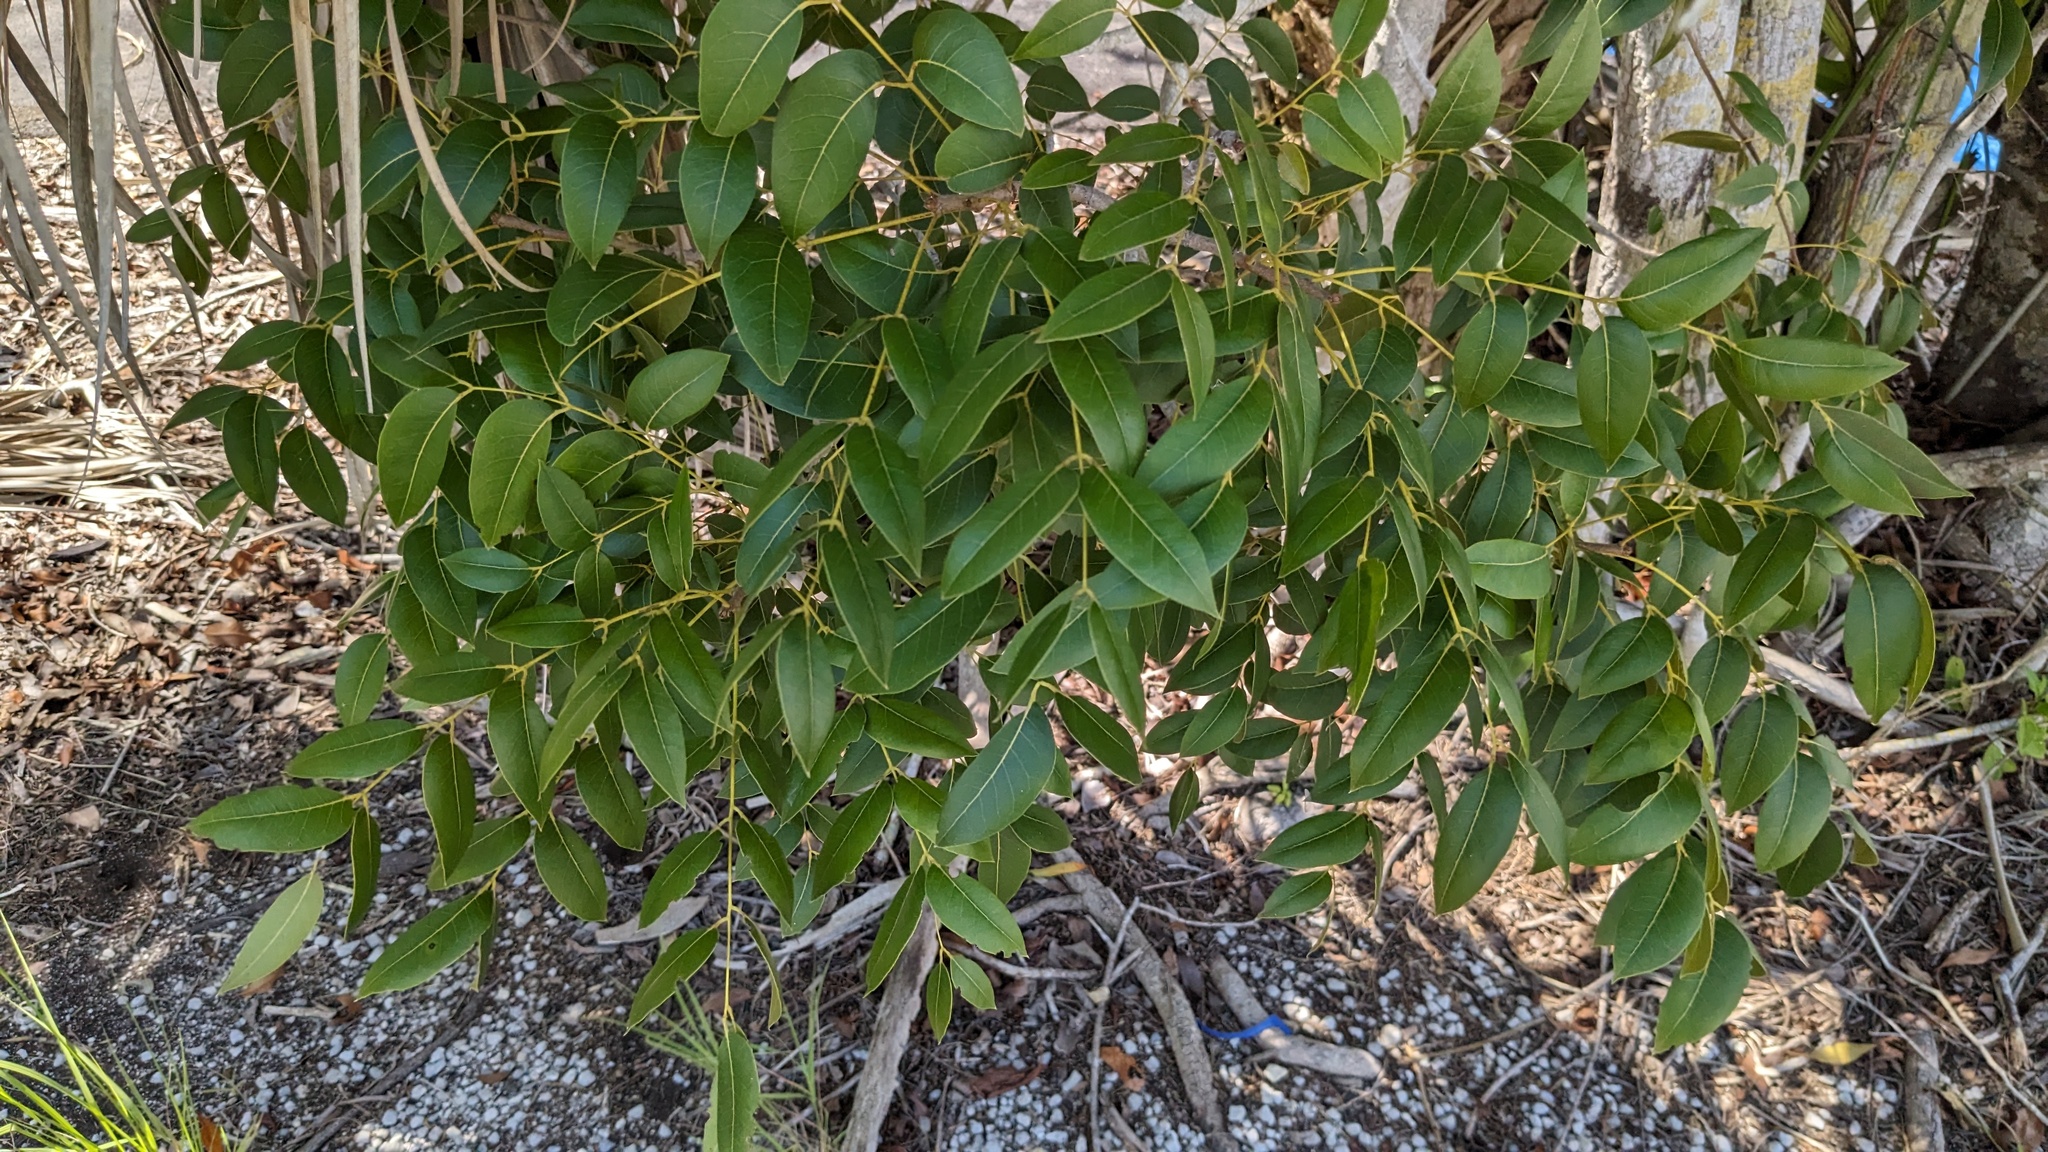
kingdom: Plantae
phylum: Tracheophyta
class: Magnoliopsida
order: Sapindales
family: Meliaceae
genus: Swietenia
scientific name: Swietenia mahagoni
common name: West indian mahogany
